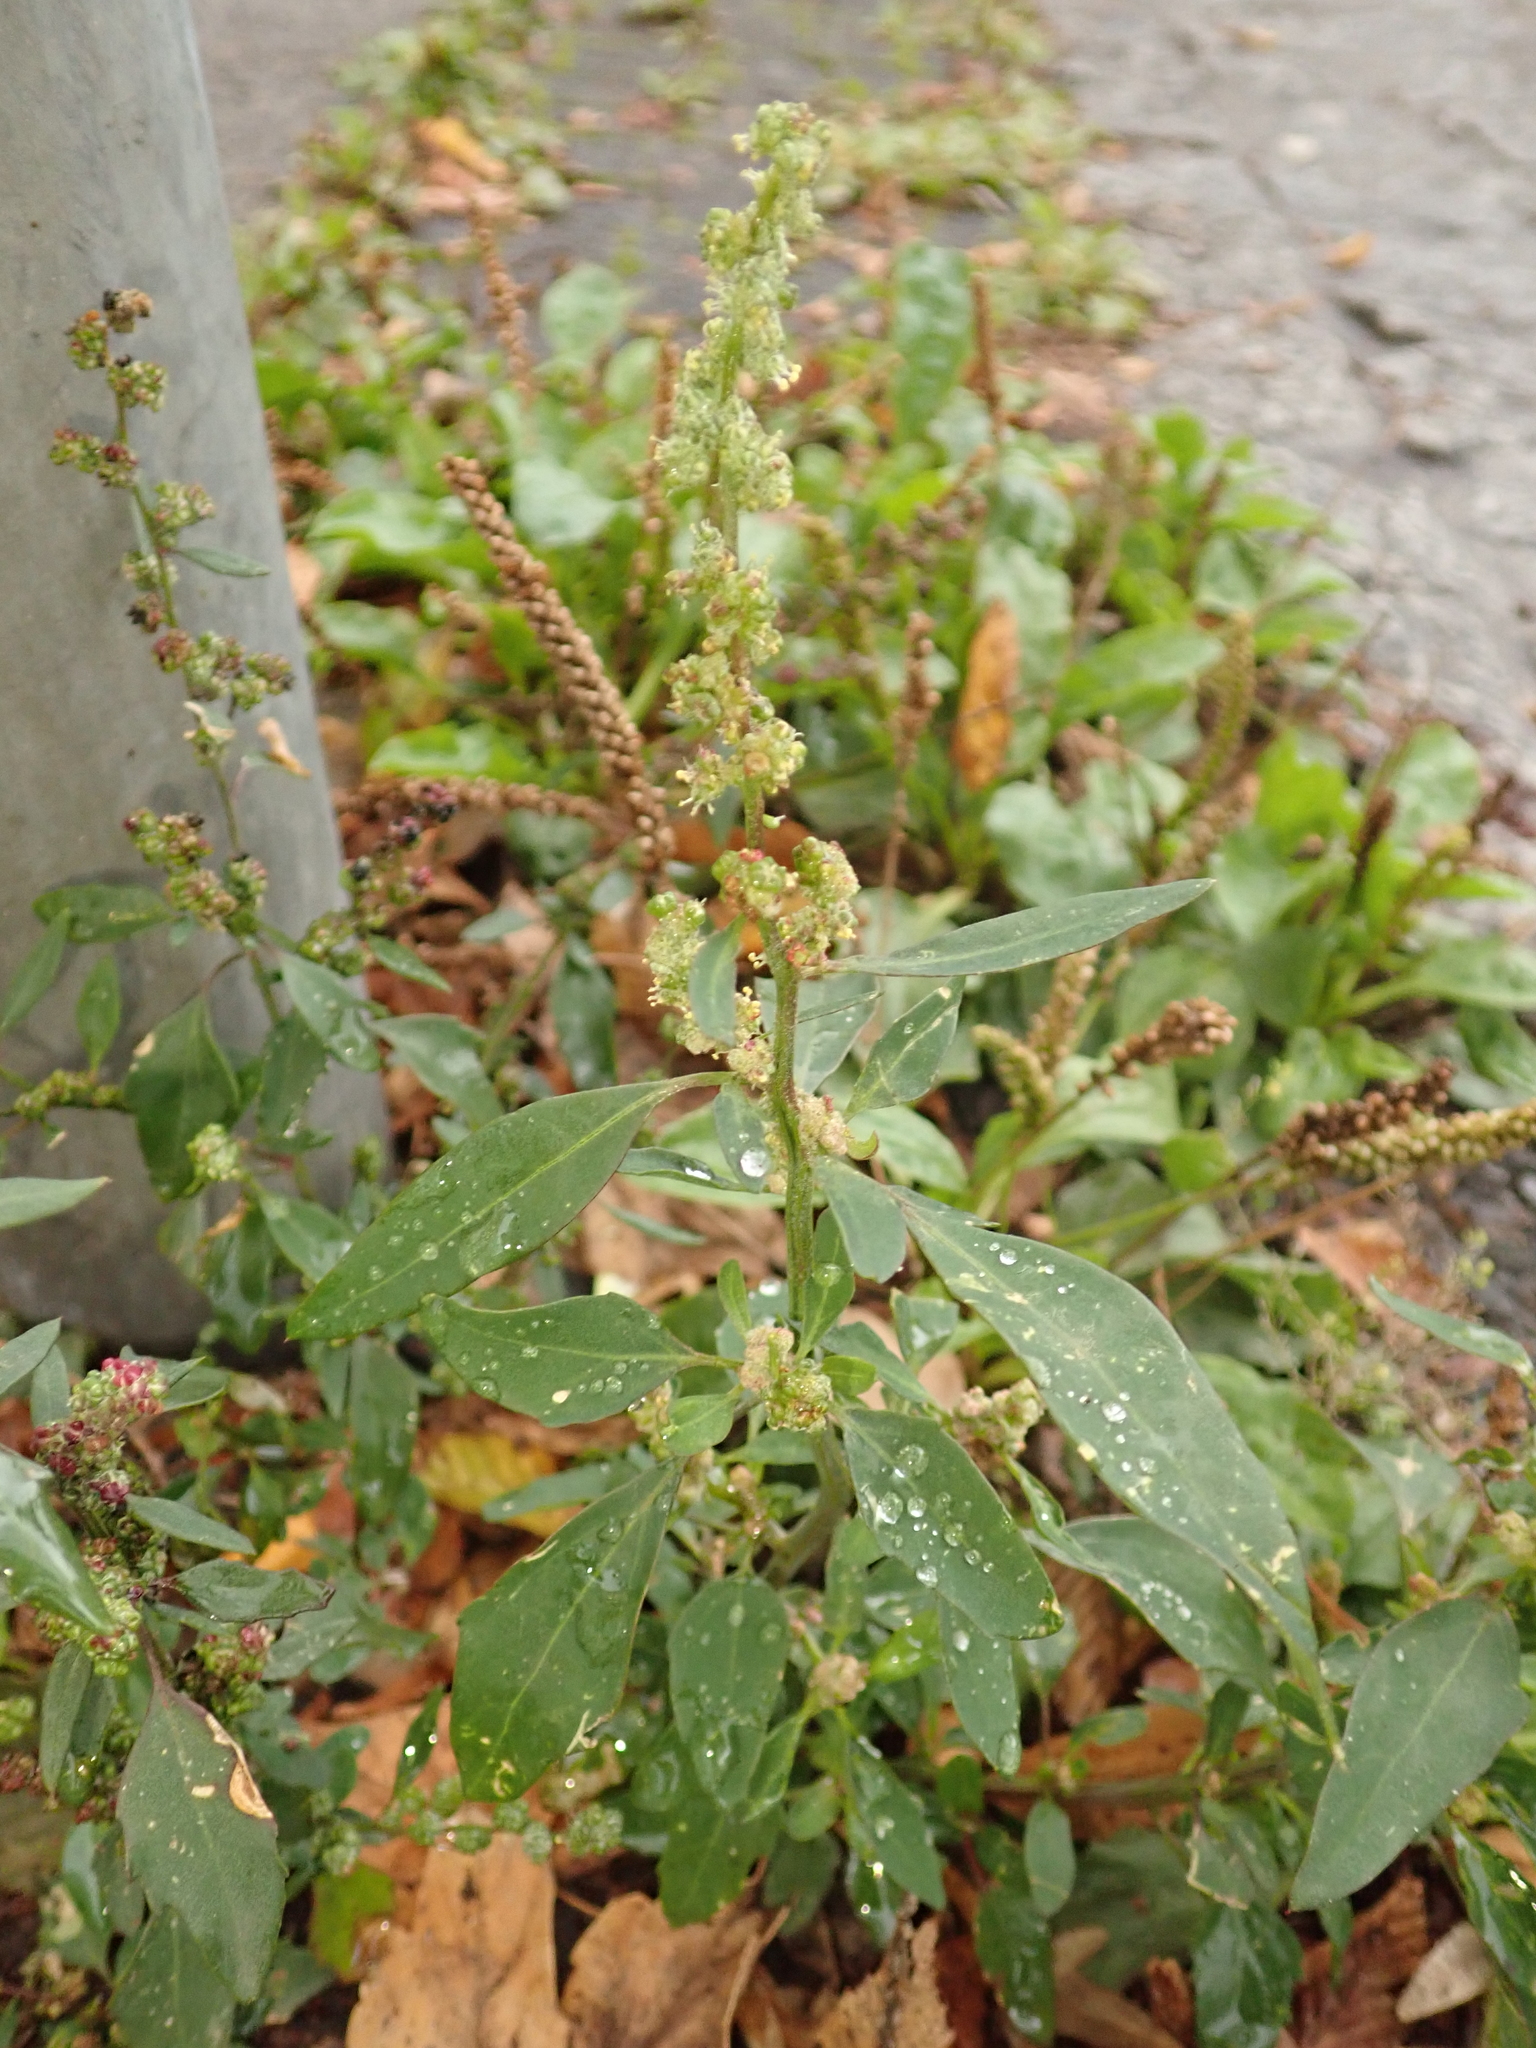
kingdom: Plantae
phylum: Tracheophyta
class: Magnoliopsida
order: Caryophyllales
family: Amaranthaceae
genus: Chenopodium
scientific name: Chenopodium album
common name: Fat-hen
